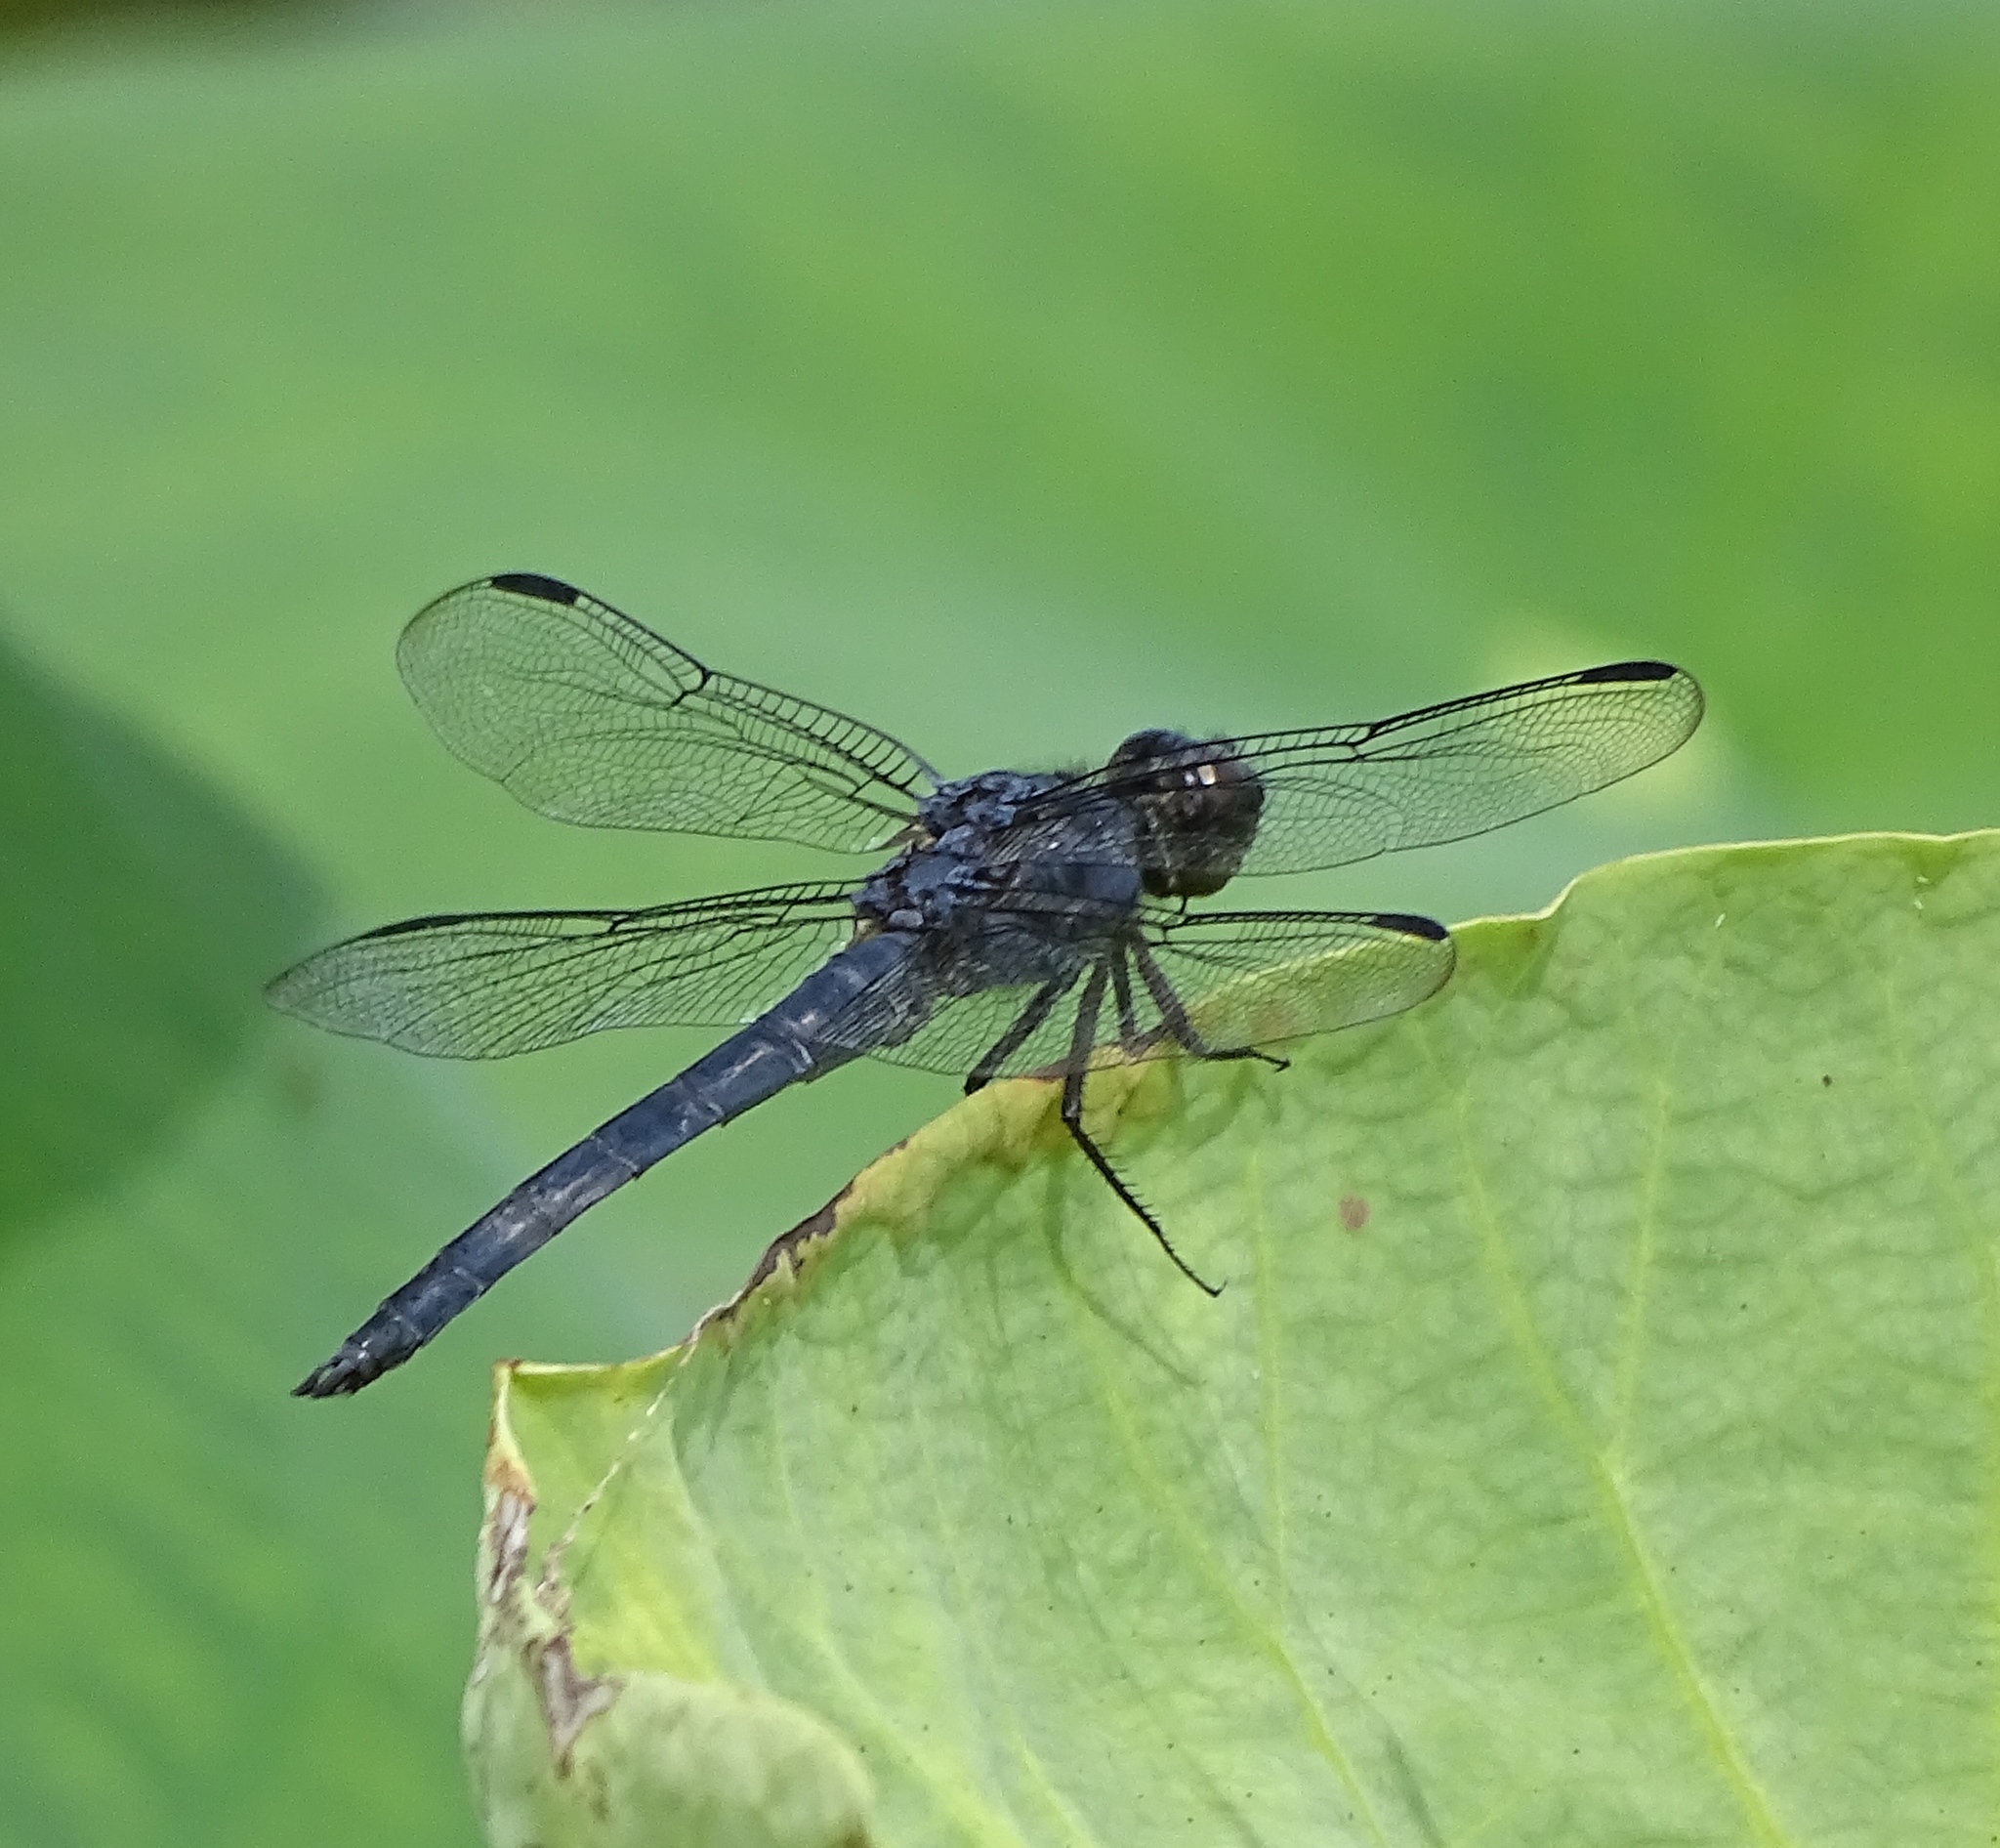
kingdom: Animalia
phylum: Arthropoda
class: Insecta
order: Odonata
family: Libellulidae
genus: Libellula
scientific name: Libellula incesta
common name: Slaty skimmer
